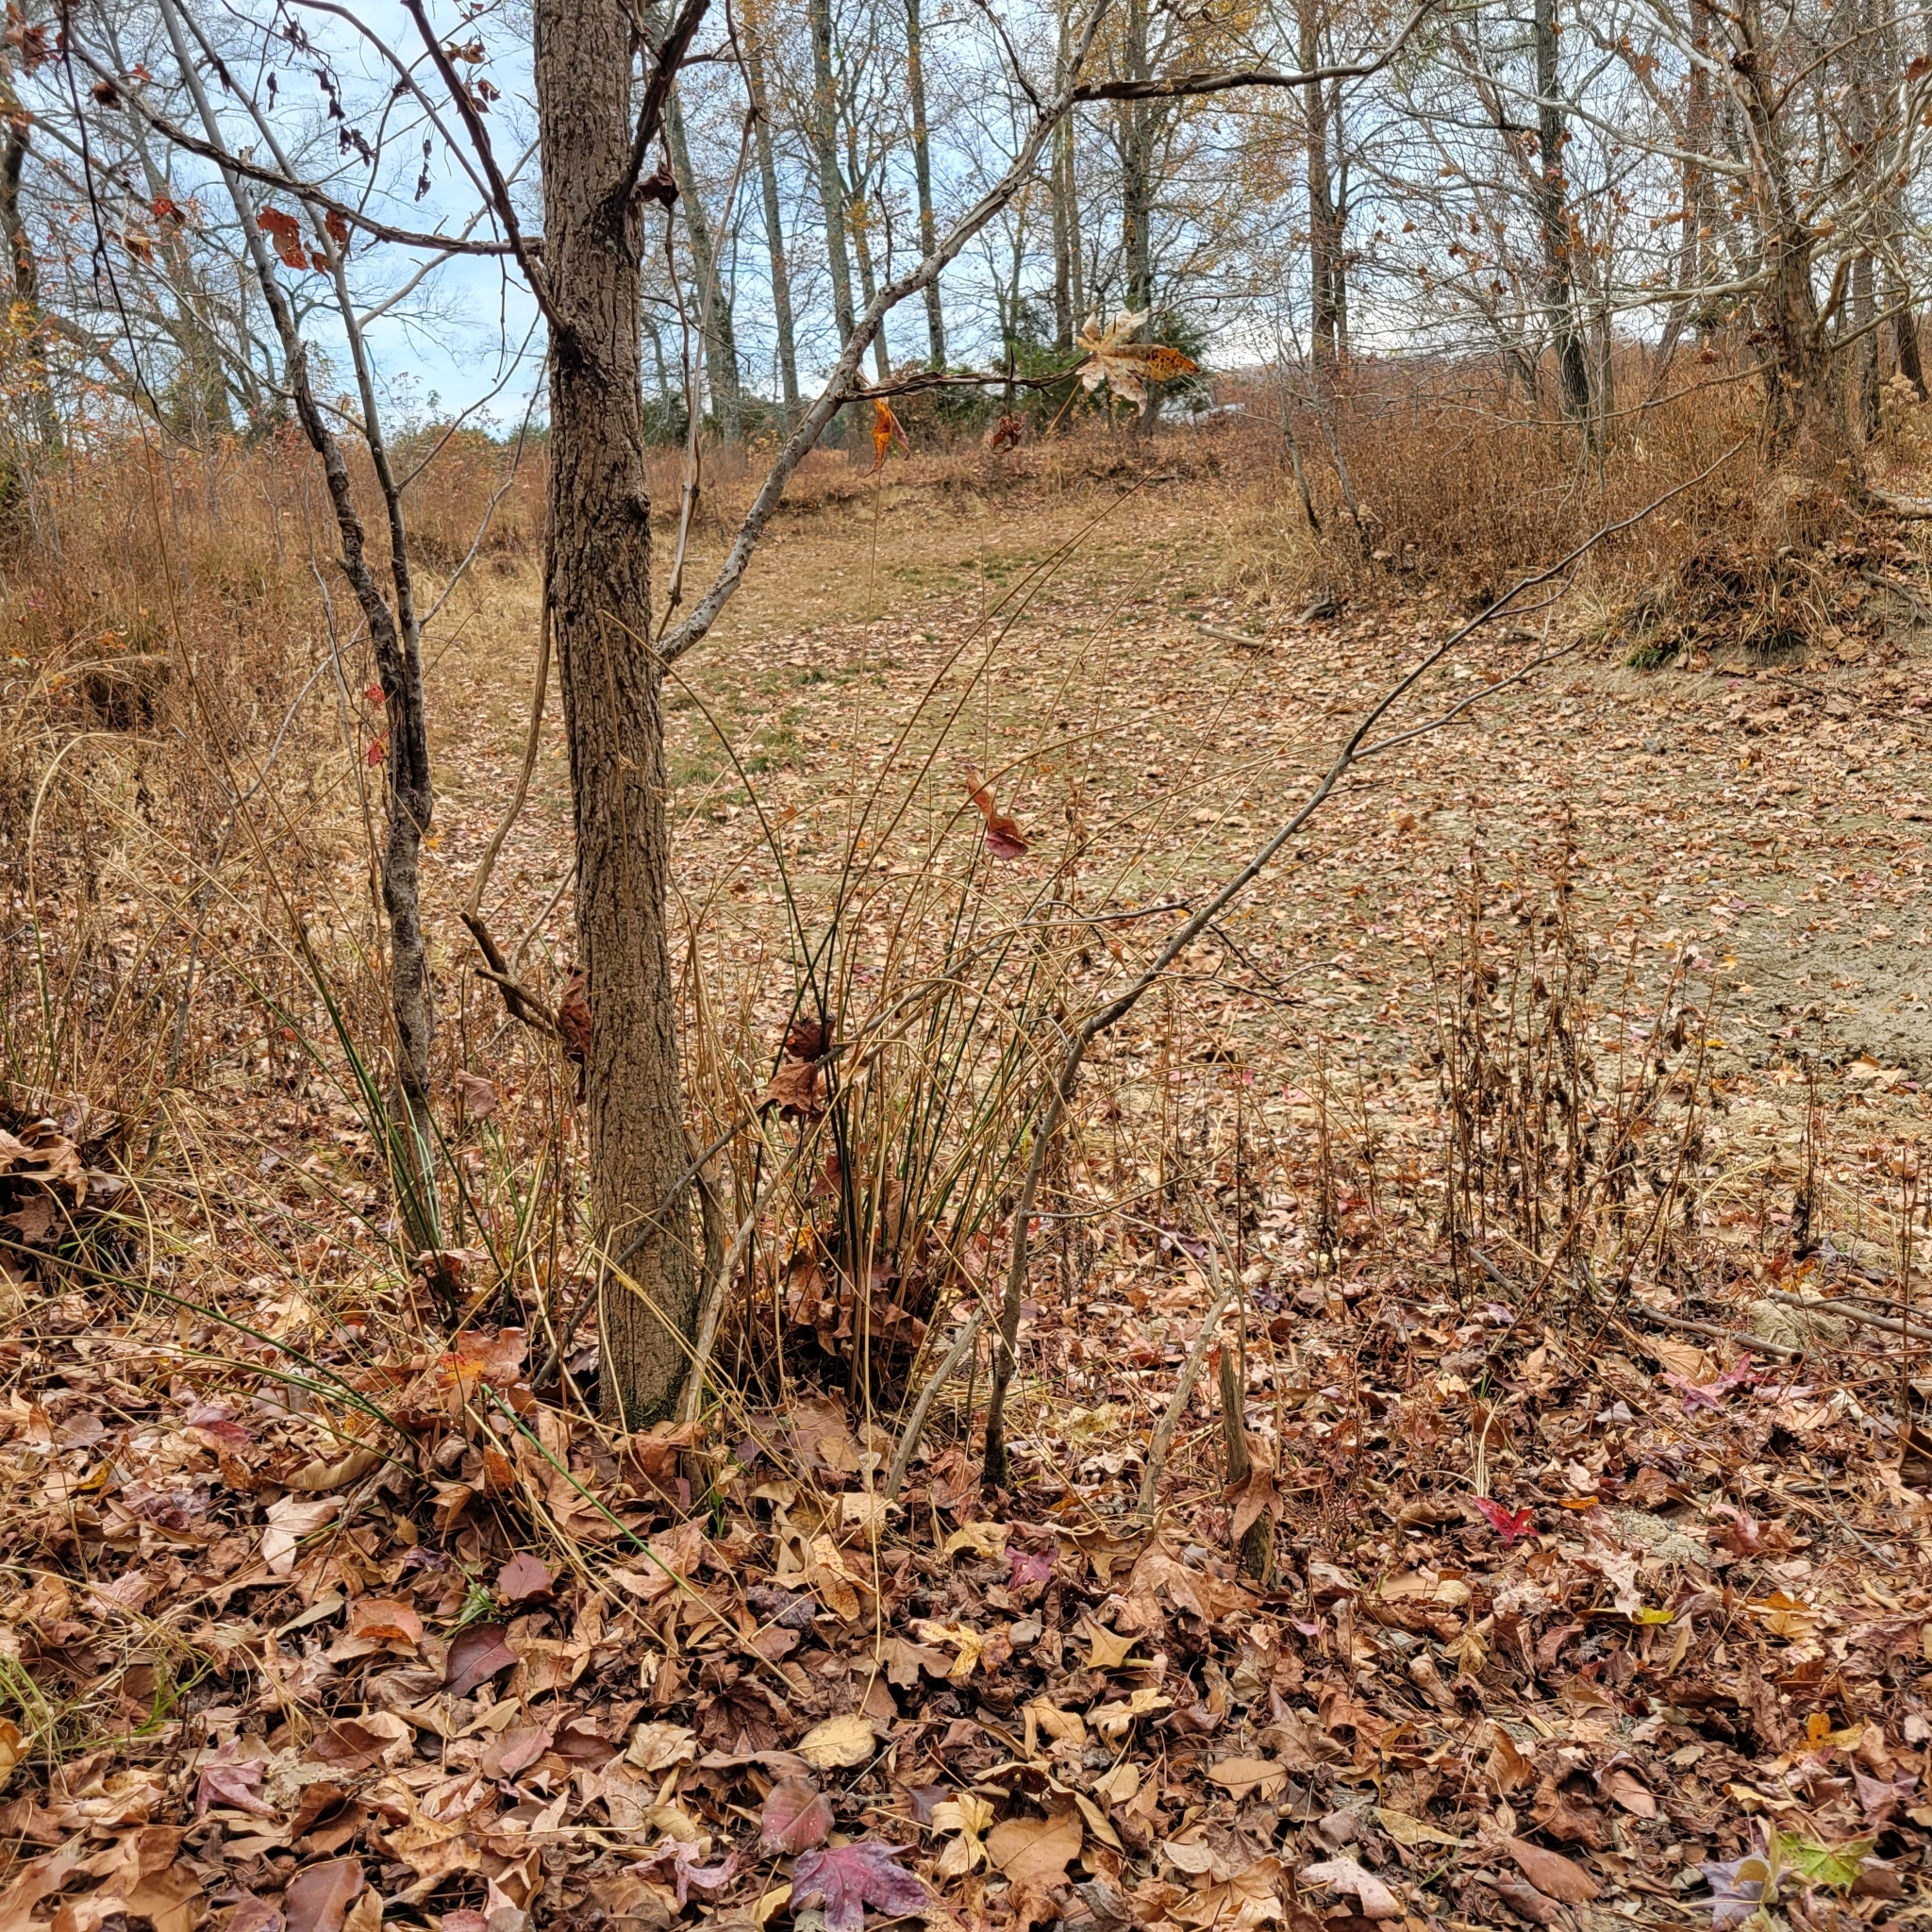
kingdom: Plantae
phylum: Tracheophyta
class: Liliopsida
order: Poales
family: Juncaceae
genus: Juncus
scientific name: Juncus effusus
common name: Soft rush
